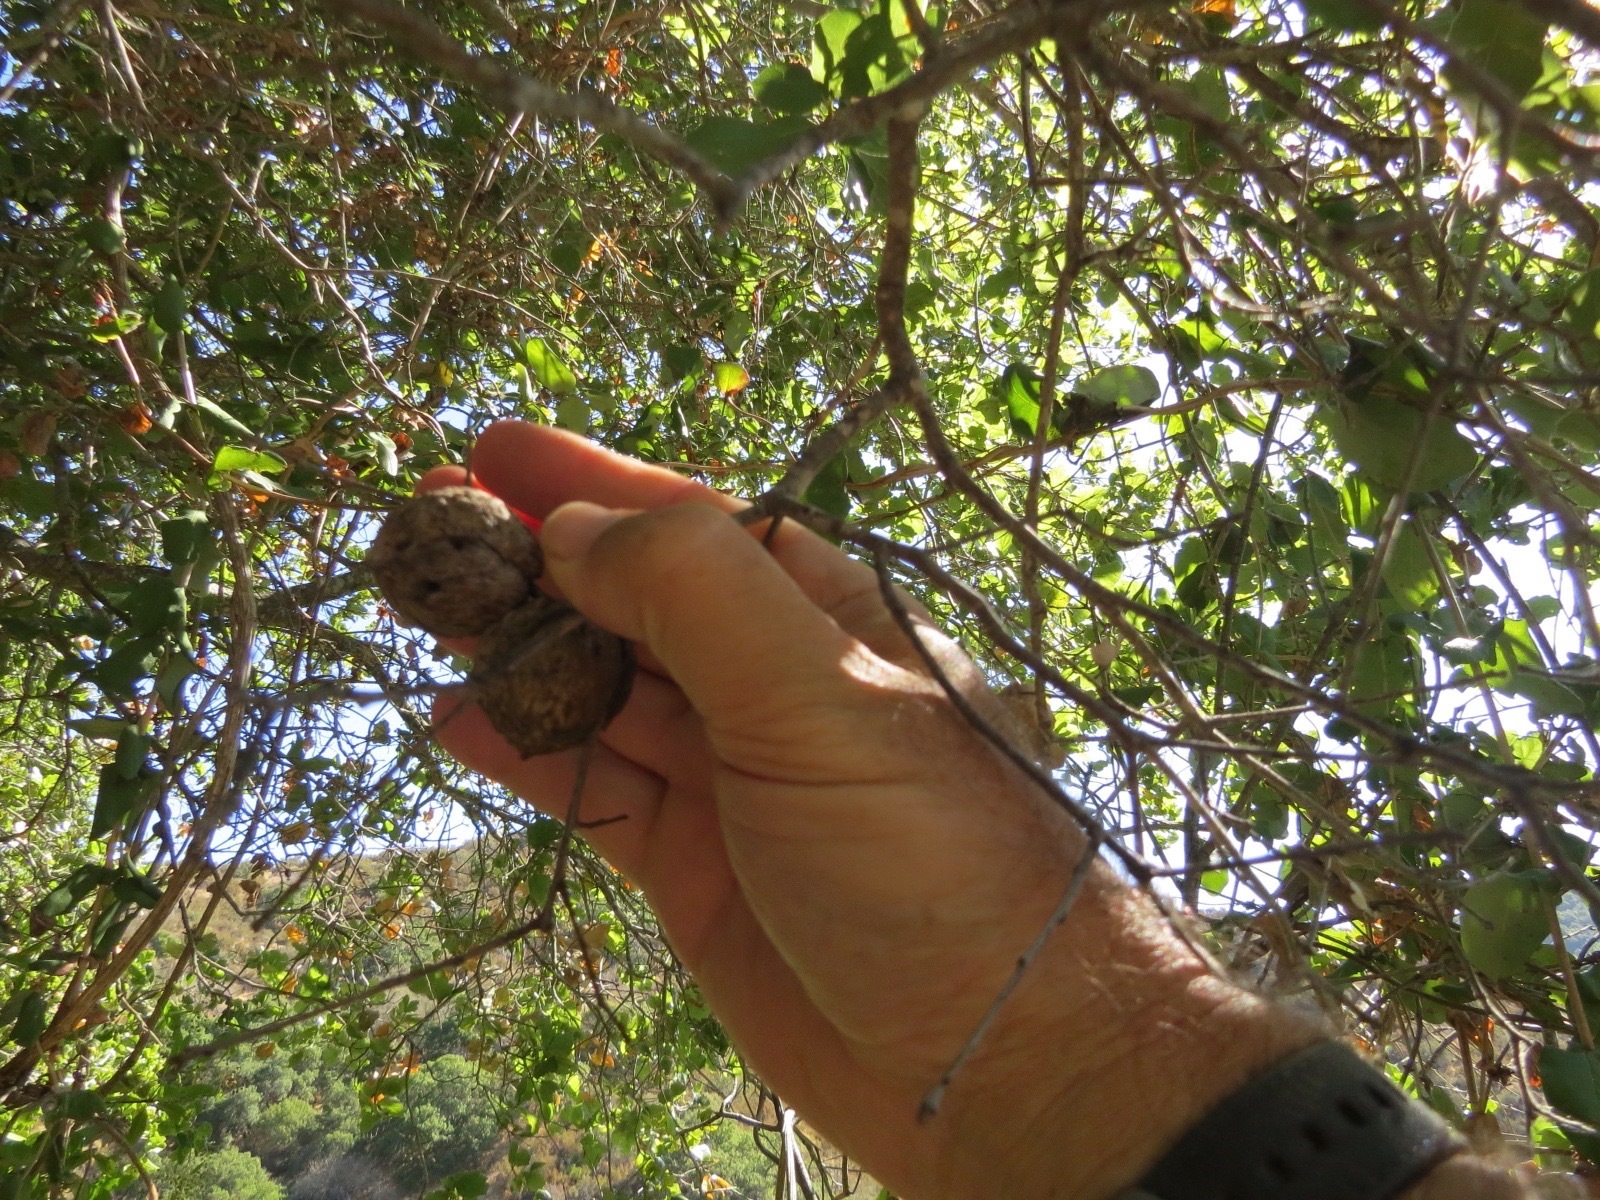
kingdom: Animalia
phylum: Arthropoda
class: Insecta
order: Hymenoptera
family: Cynipidae
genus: Amphibolips
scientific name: Amphibolips quercuspomiformis
